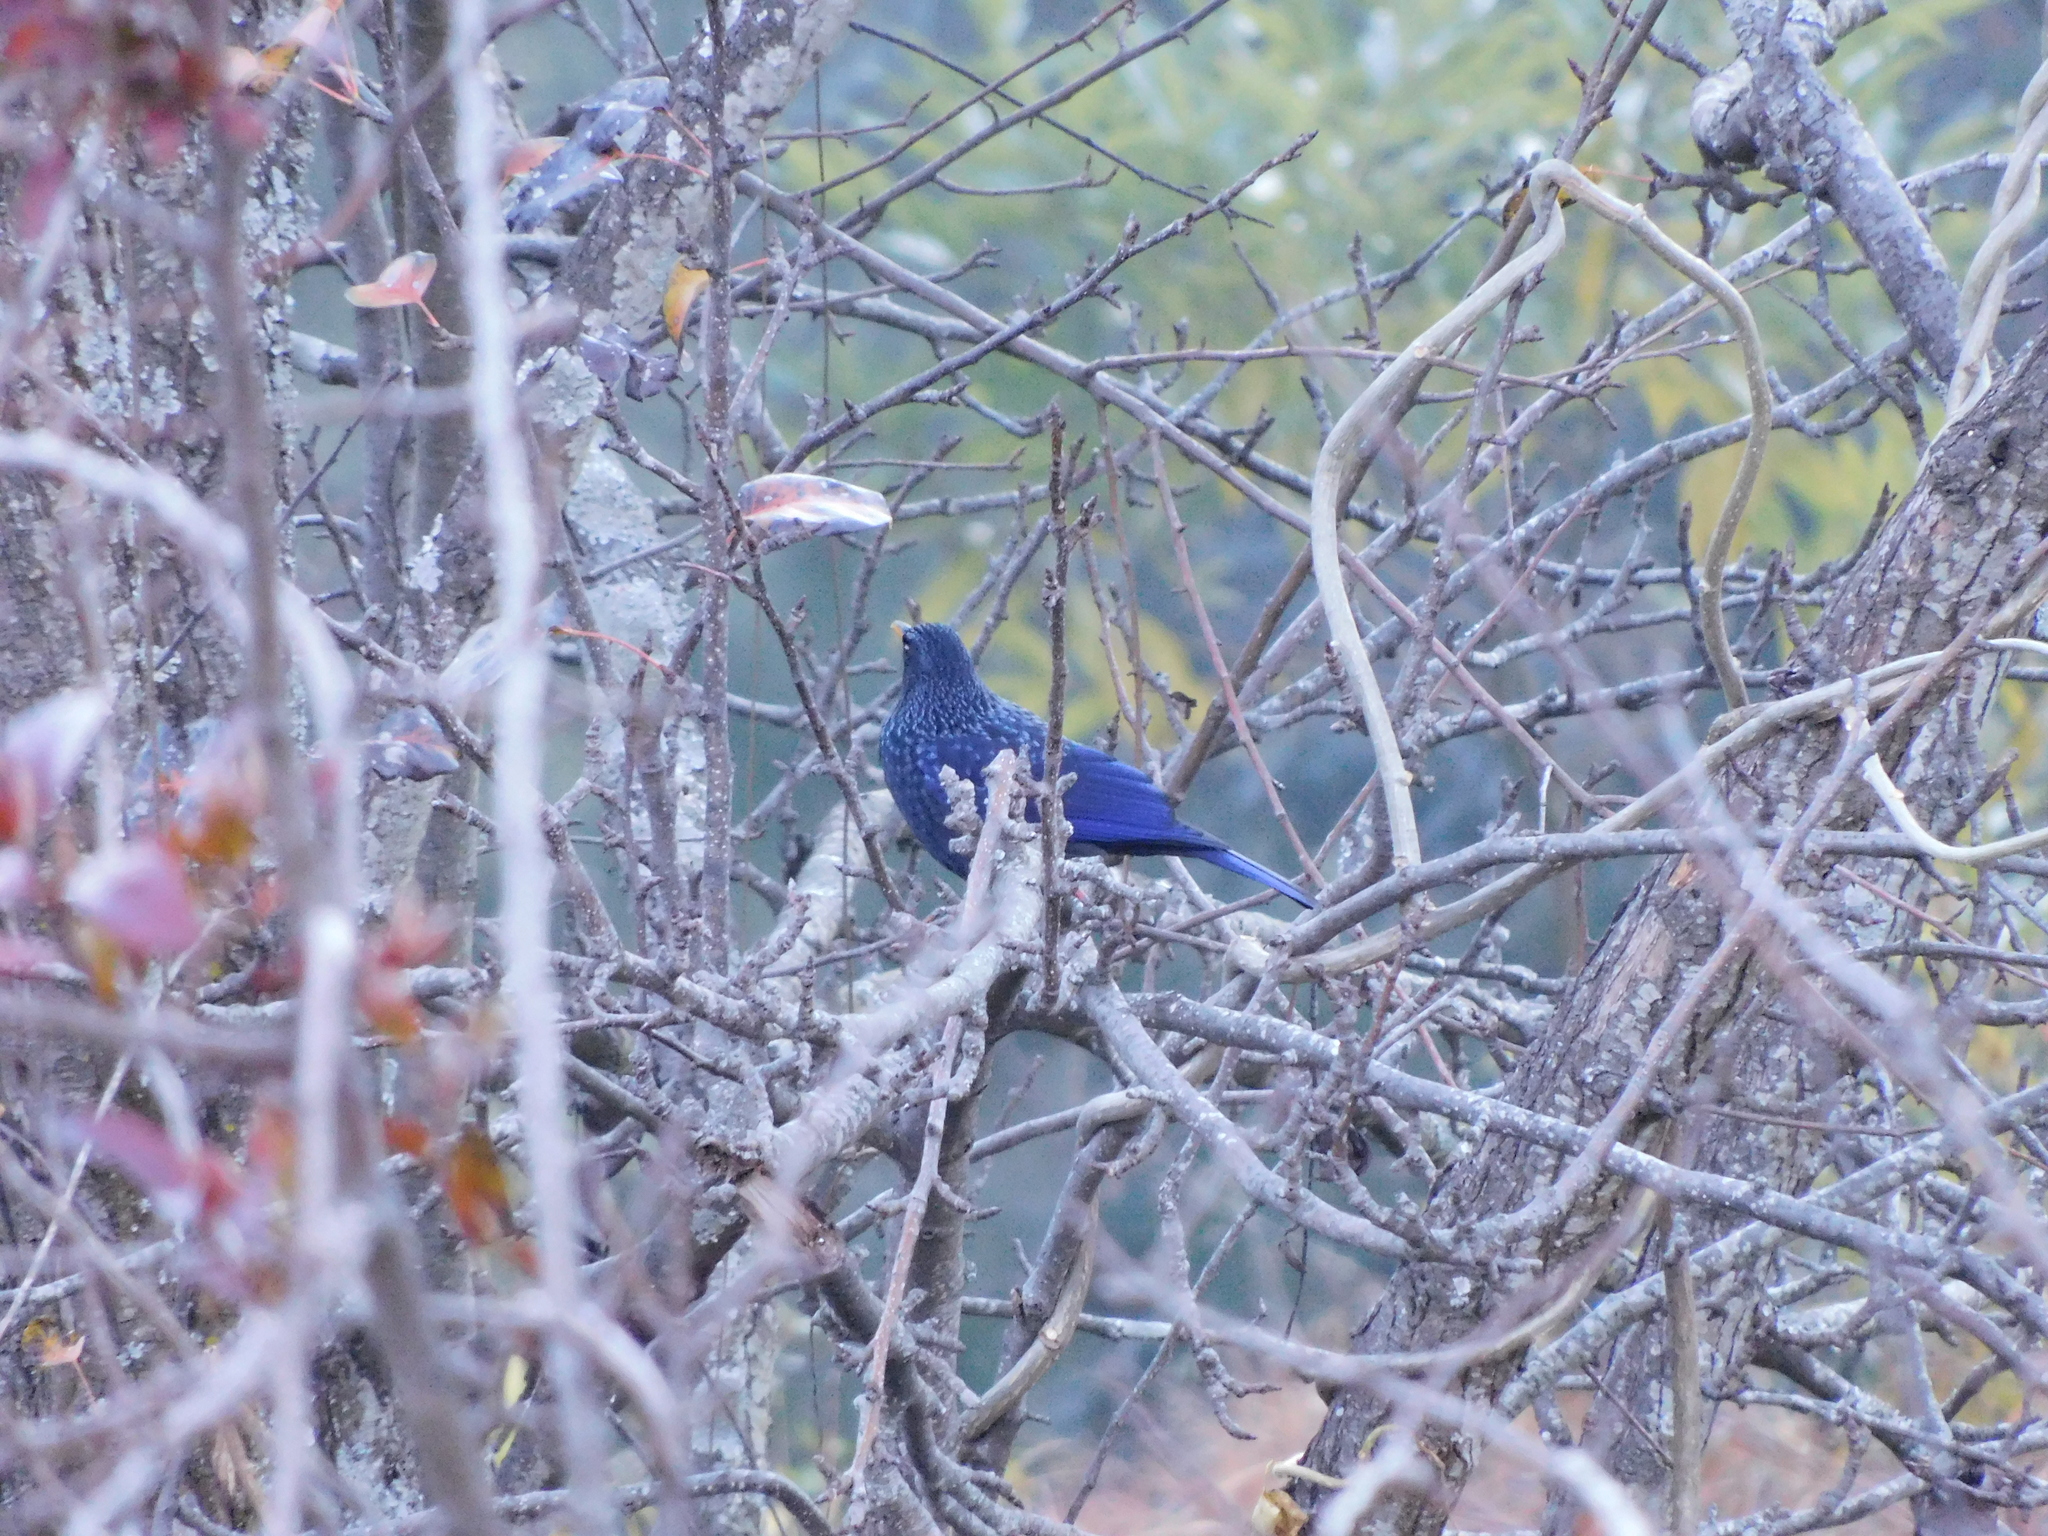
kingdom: Animalia
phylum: Chordata
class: Aves
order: Passeriformes
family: Muscicapidae
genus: Myophonus
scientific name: Myophonus caeruleus
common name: Blue whistling-thrush
